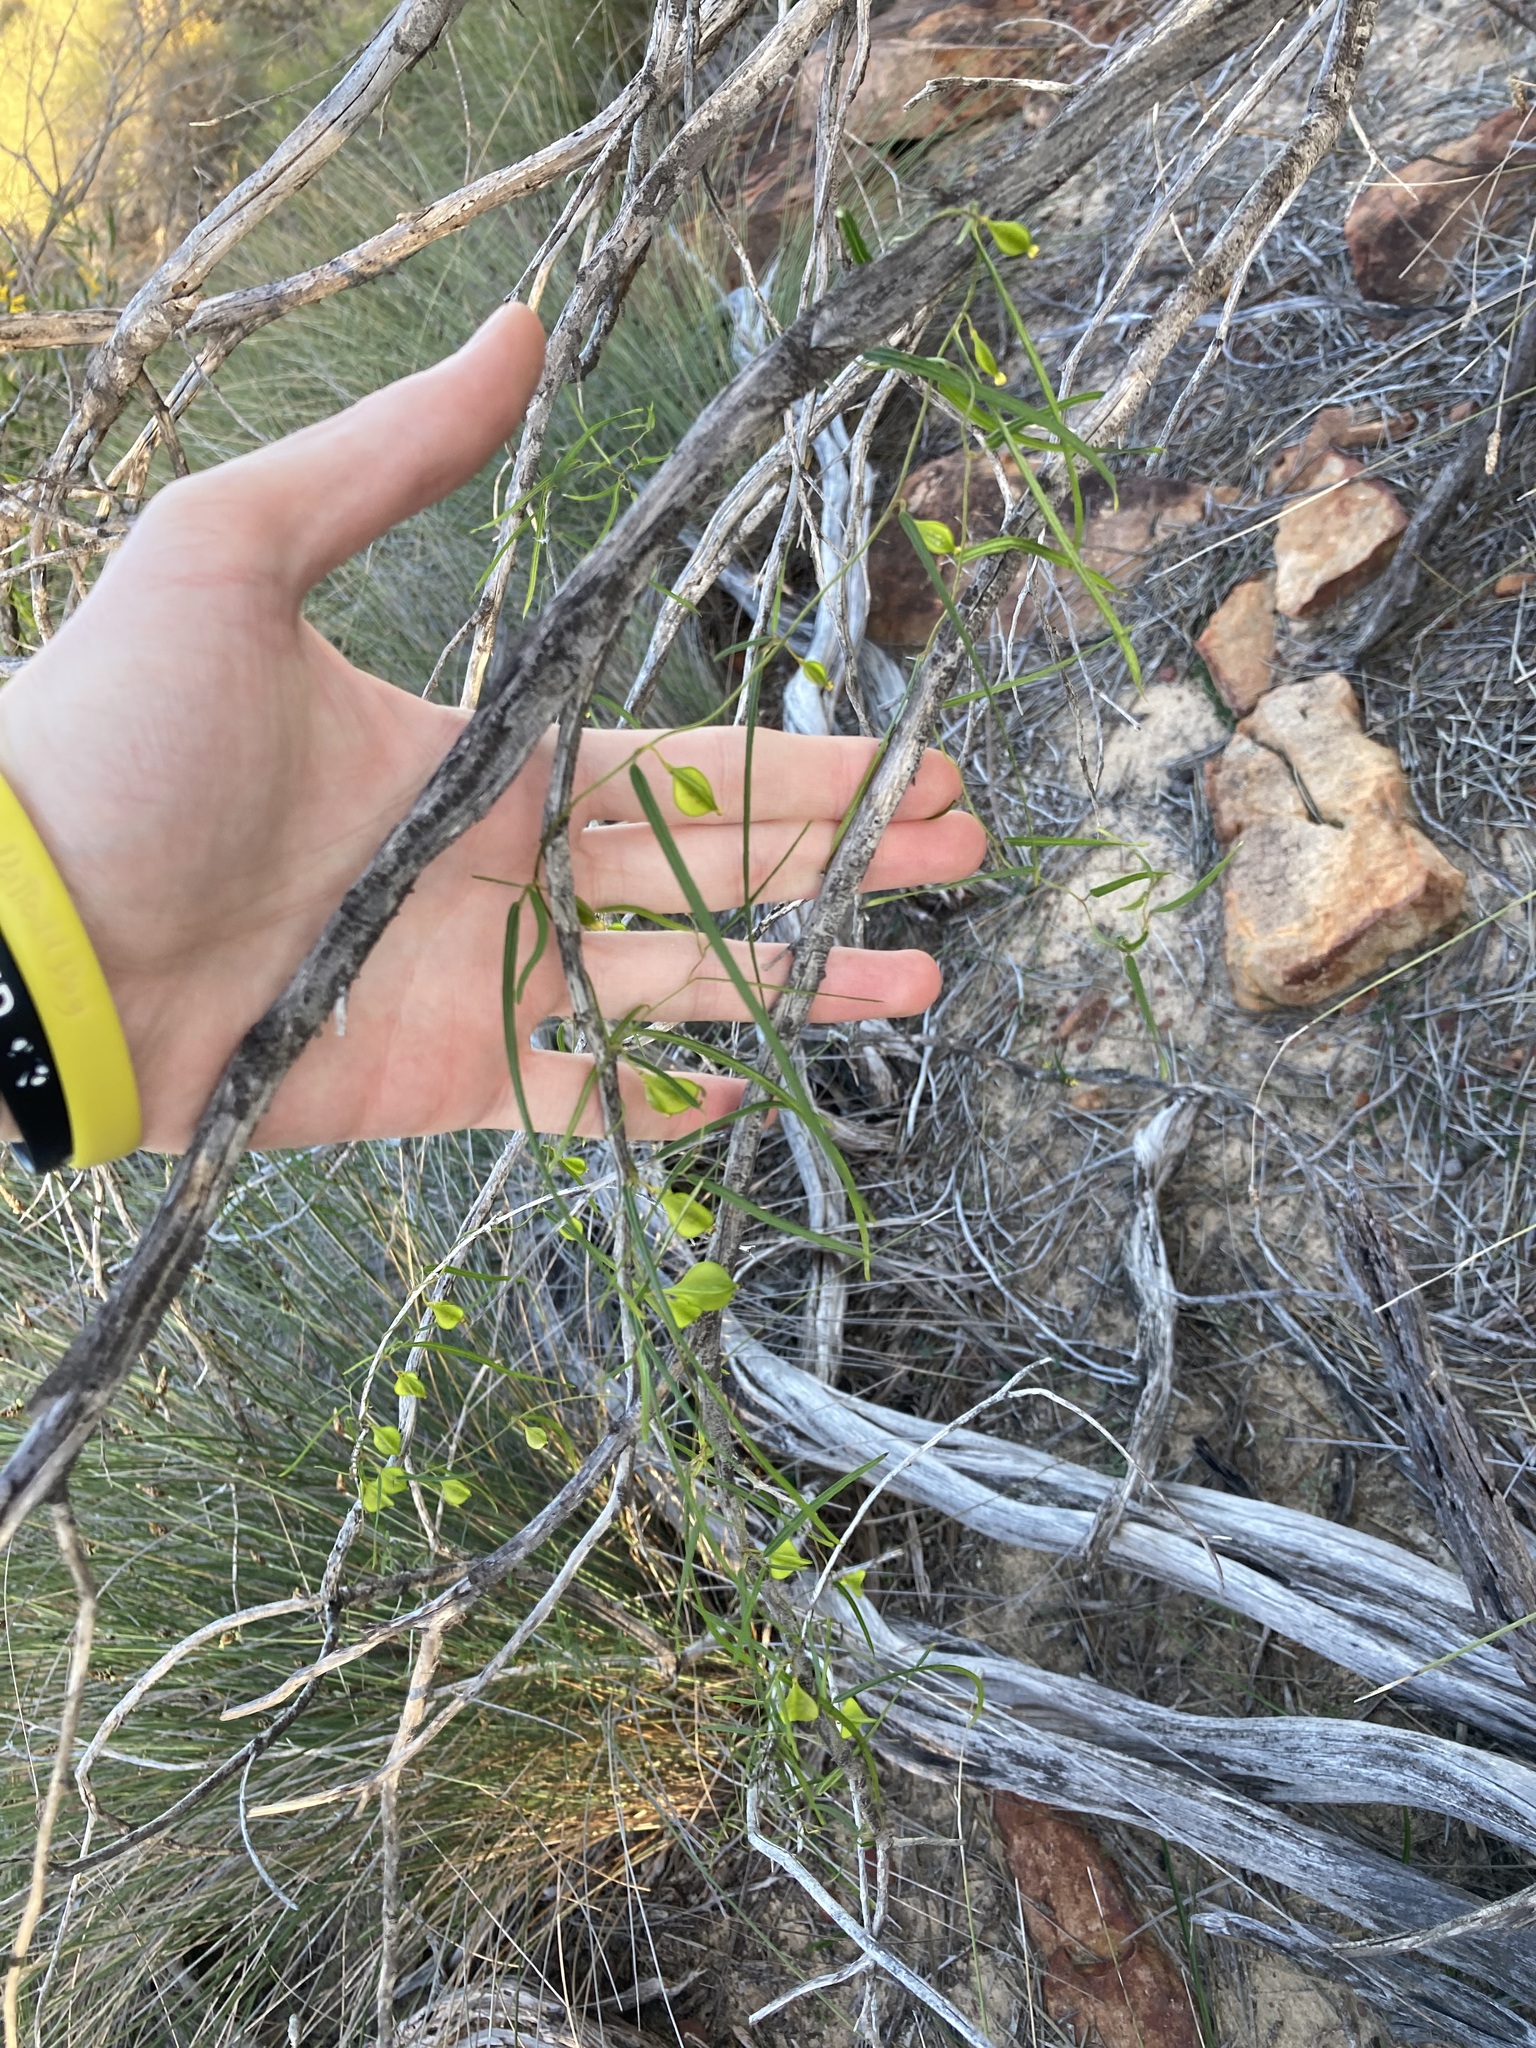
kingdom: Plantae
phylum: Tracheophyta
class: Liliopsida
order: Dioscoreales
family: Dioscoreaceae
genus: Dioscorea
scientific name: Dioscorea hastifolia
